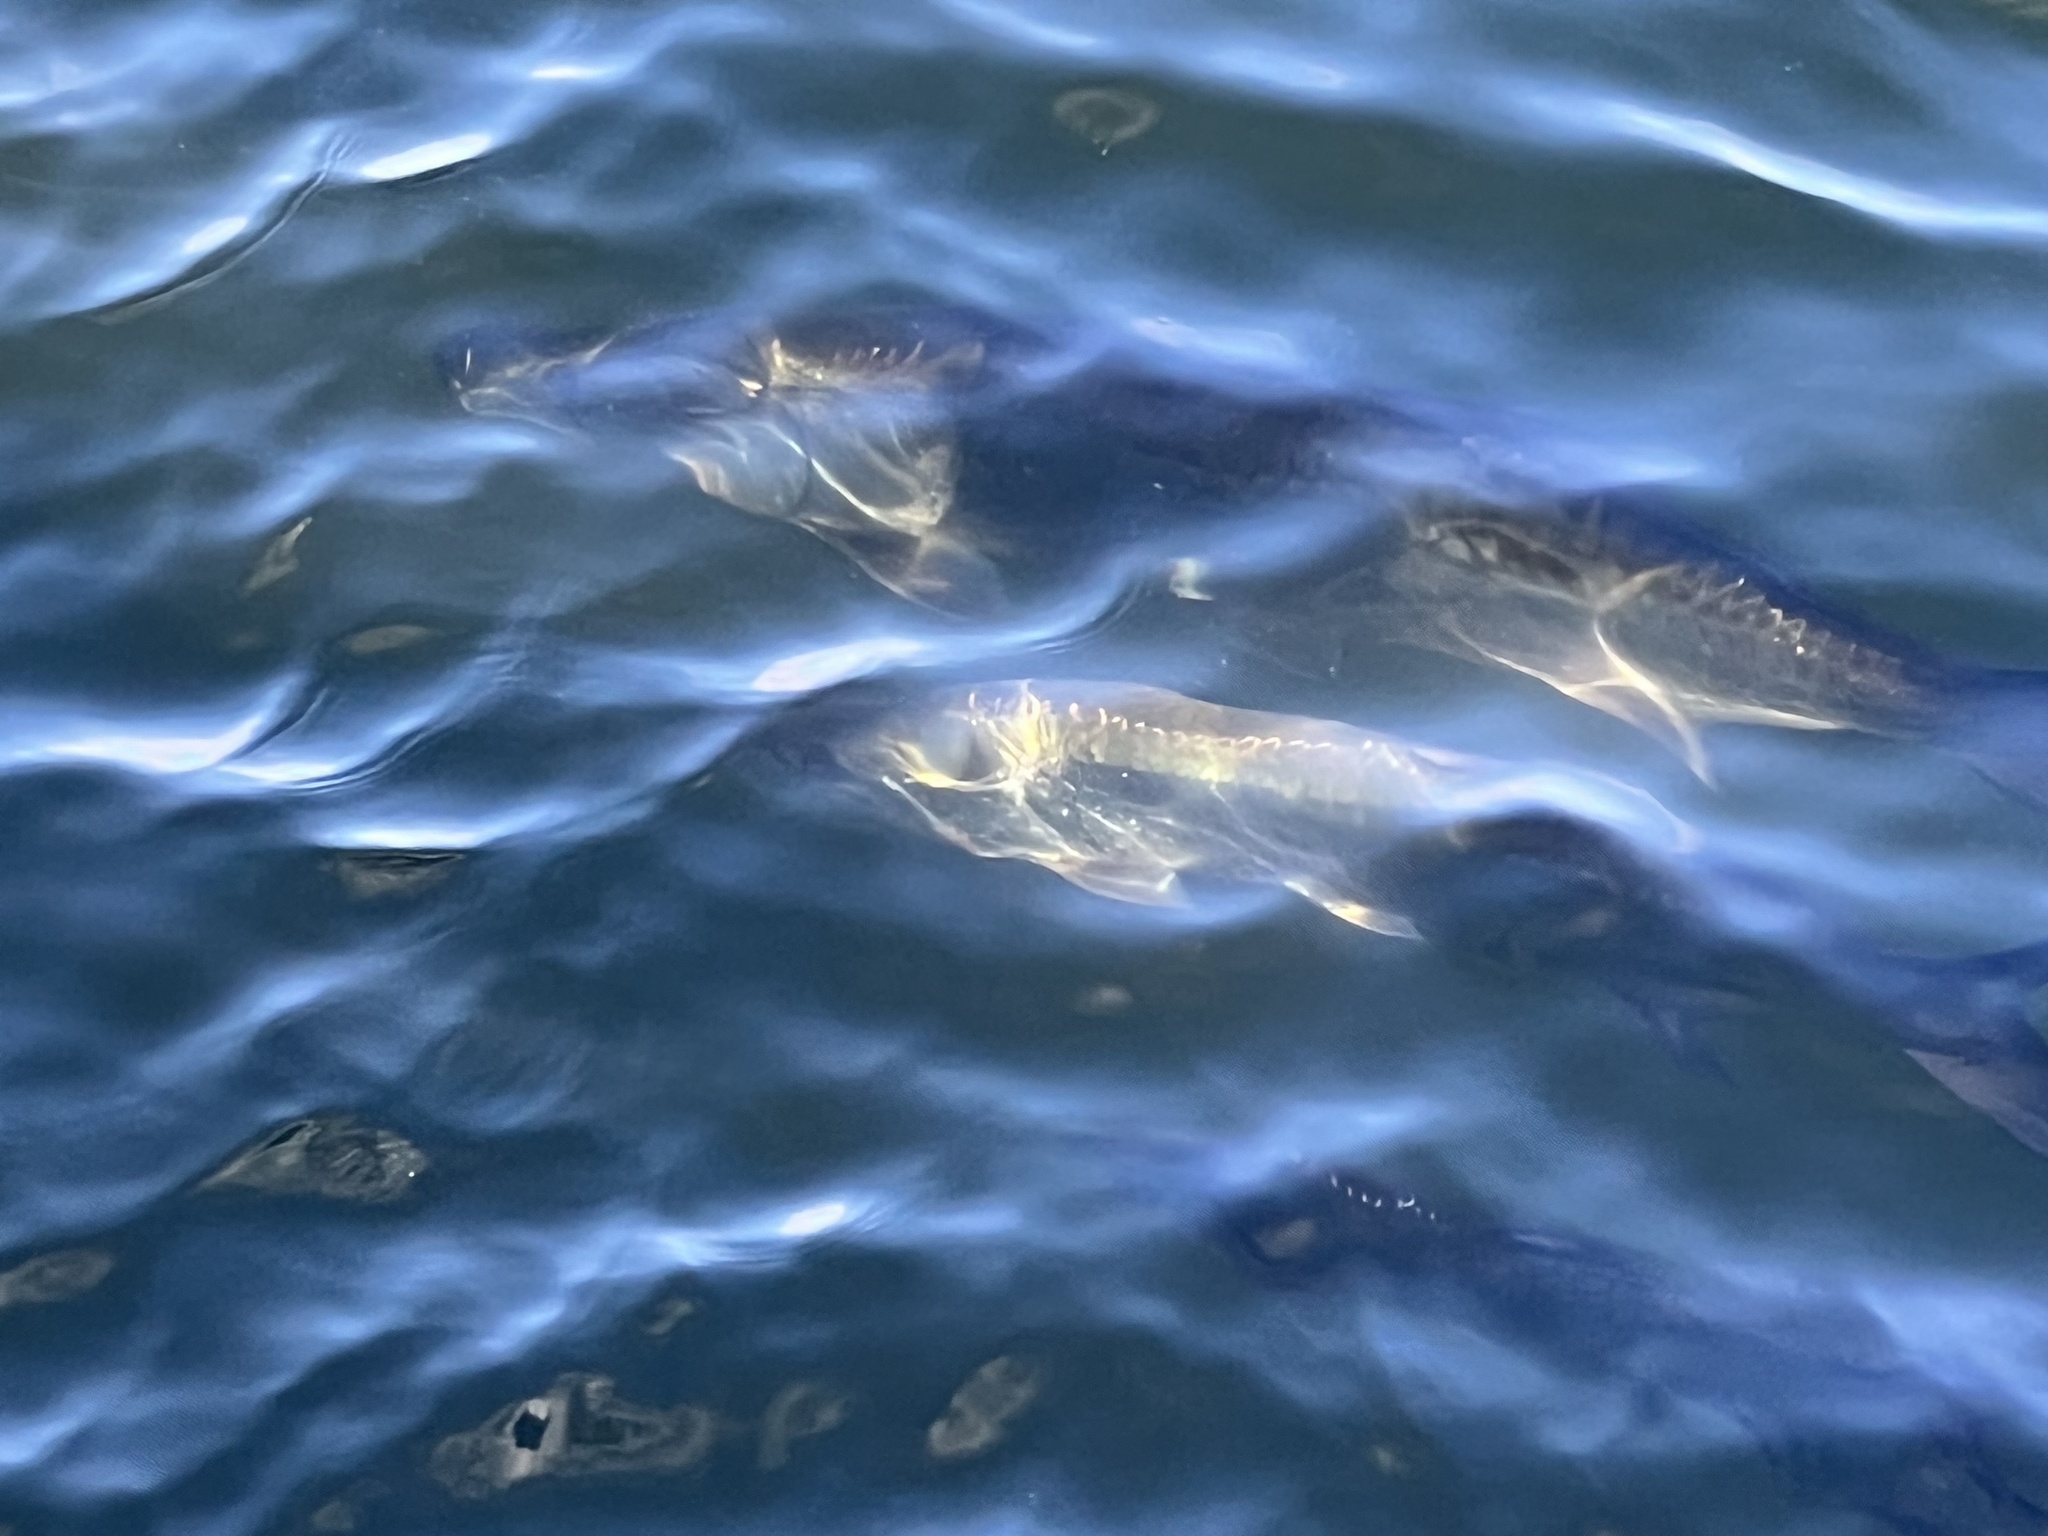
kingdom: Animalia
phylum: Chordata
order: Elopiformes
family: Megalopidae
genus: Megalops
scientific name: Megalops atlanticus
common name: Tarpon
